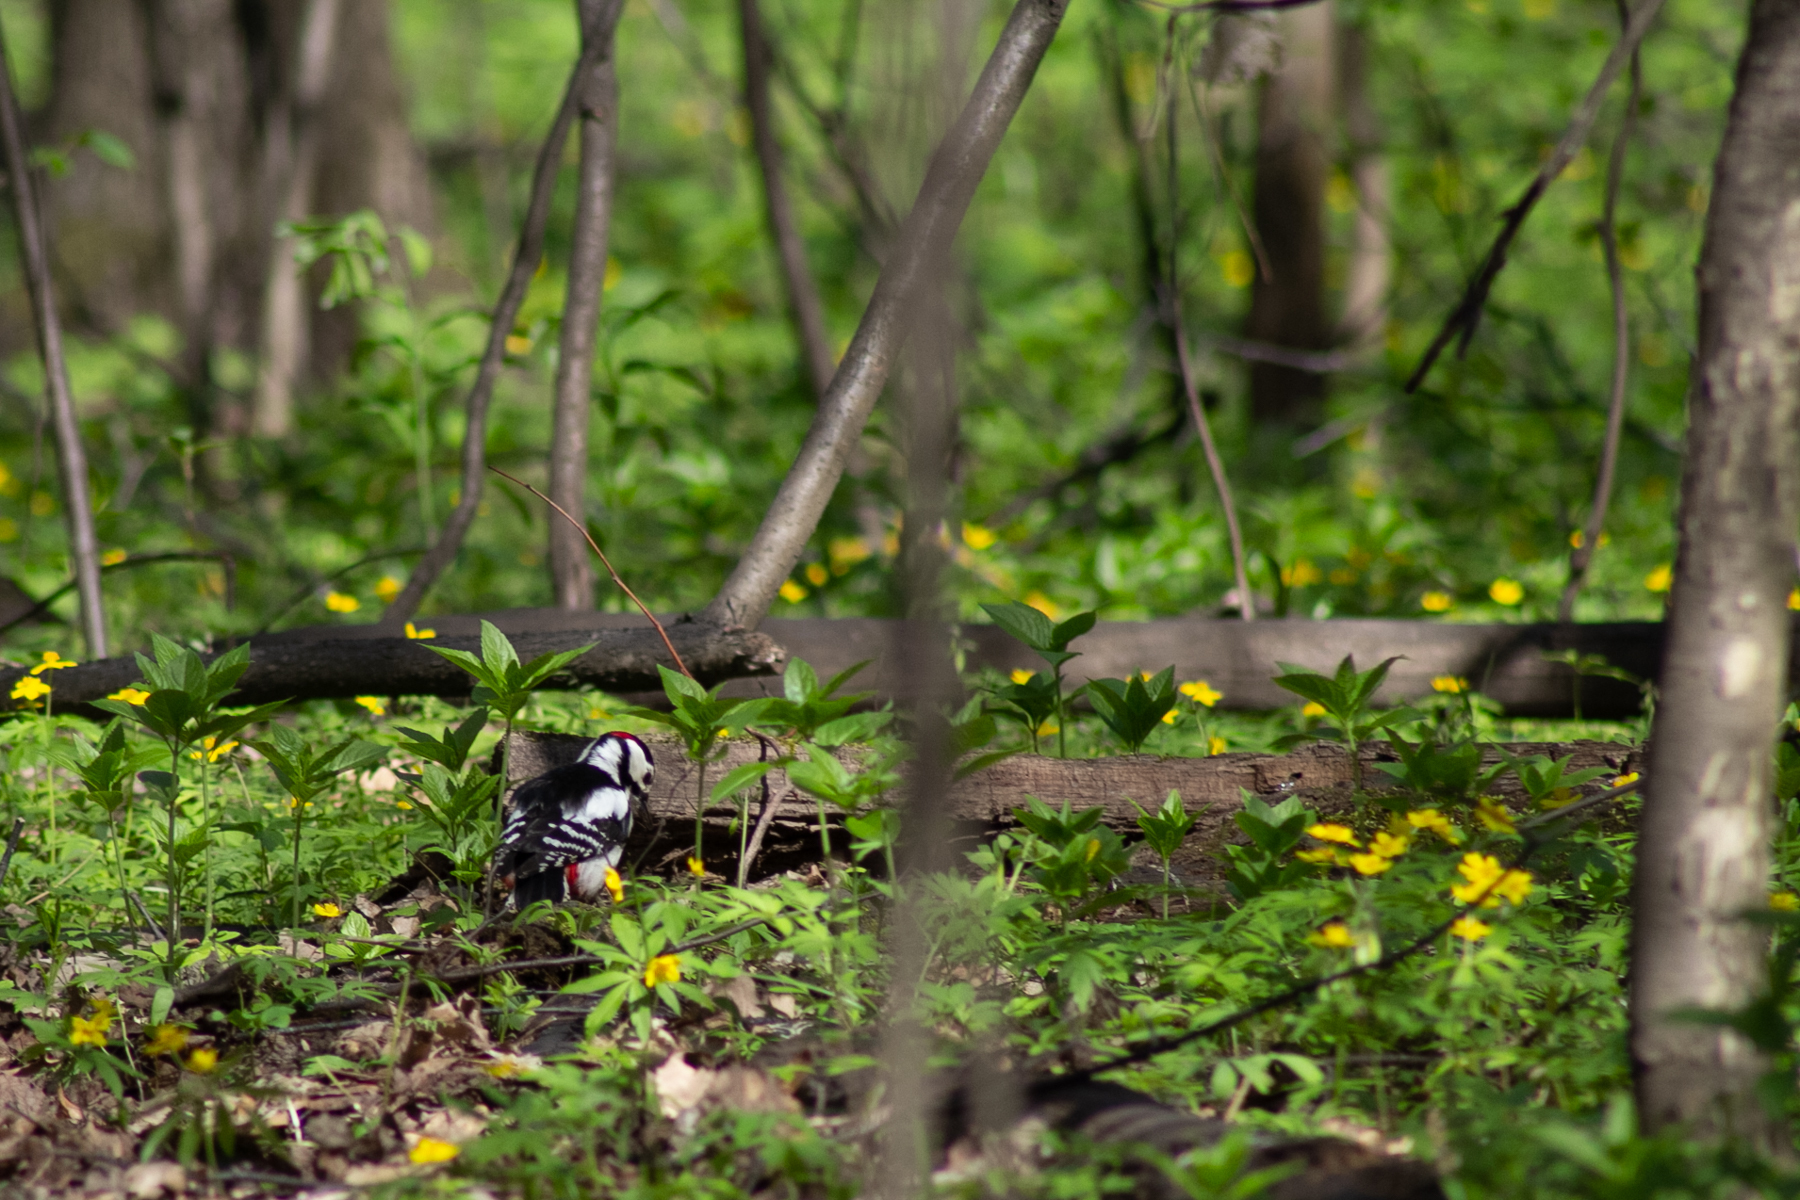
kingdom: Animalia
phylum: Chordata
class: Aves
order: Piciformes
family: Picidae
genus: Dendrocopos
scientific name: Dendrocopos major
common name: Great spotted woodpecker
